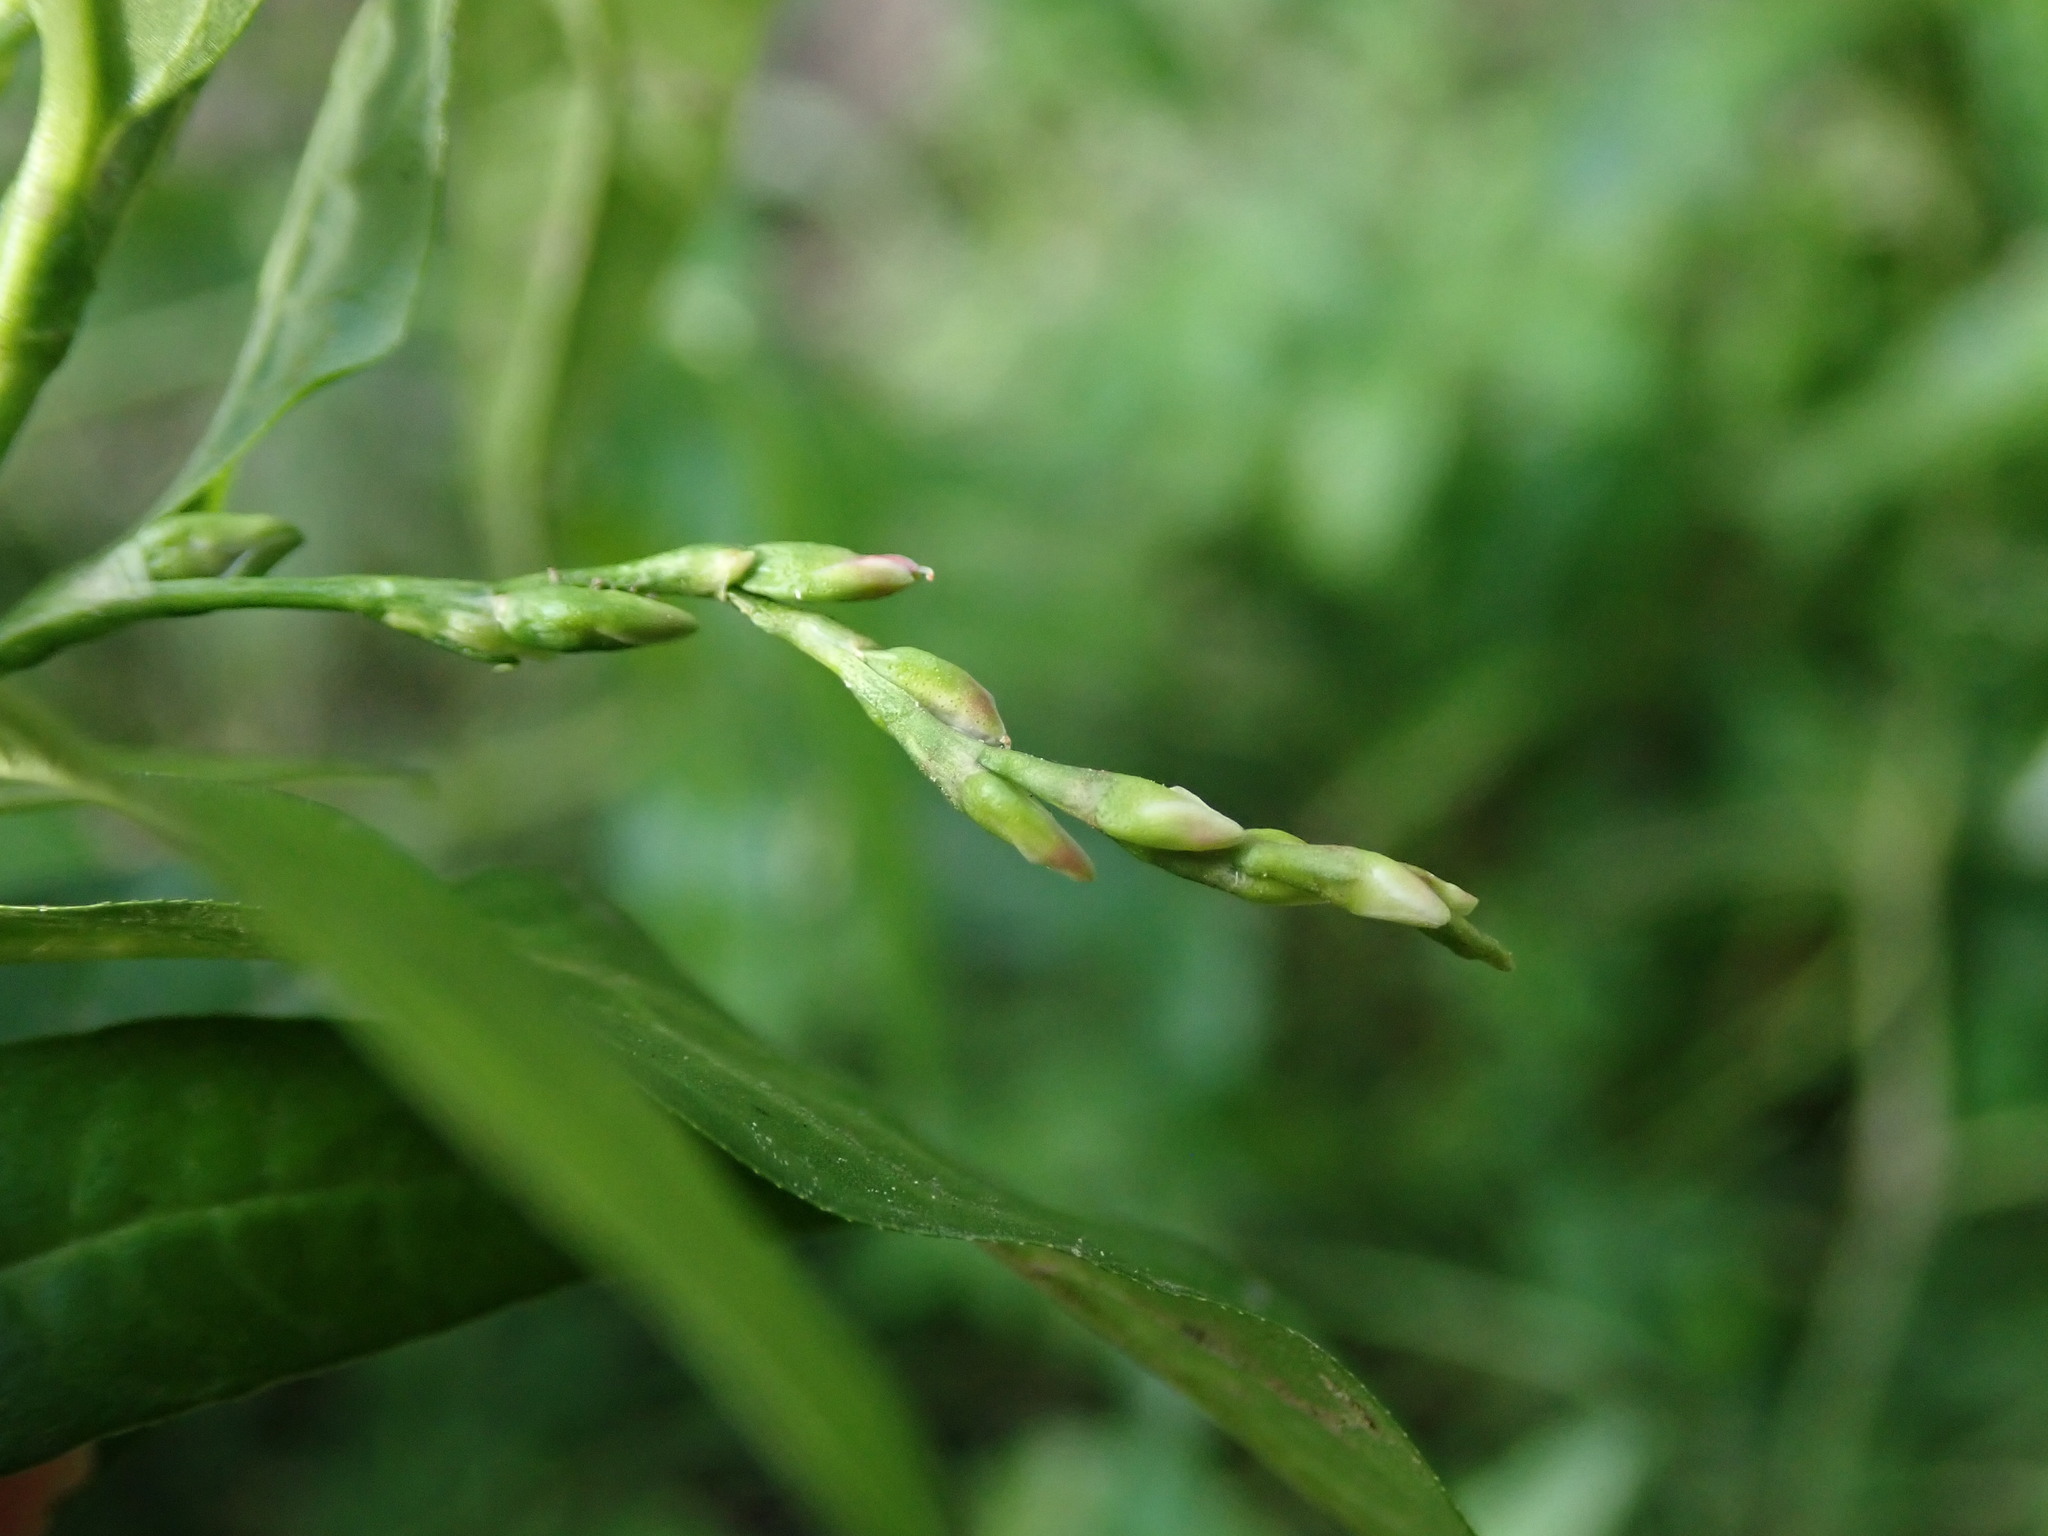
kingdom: Plantae
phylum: Tracheophyta
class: Magnoliopsida
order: Caryophyllales
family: Polygonaceae
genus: Persicaria
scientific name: Persicaria hydropiper
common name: Water-pepper
